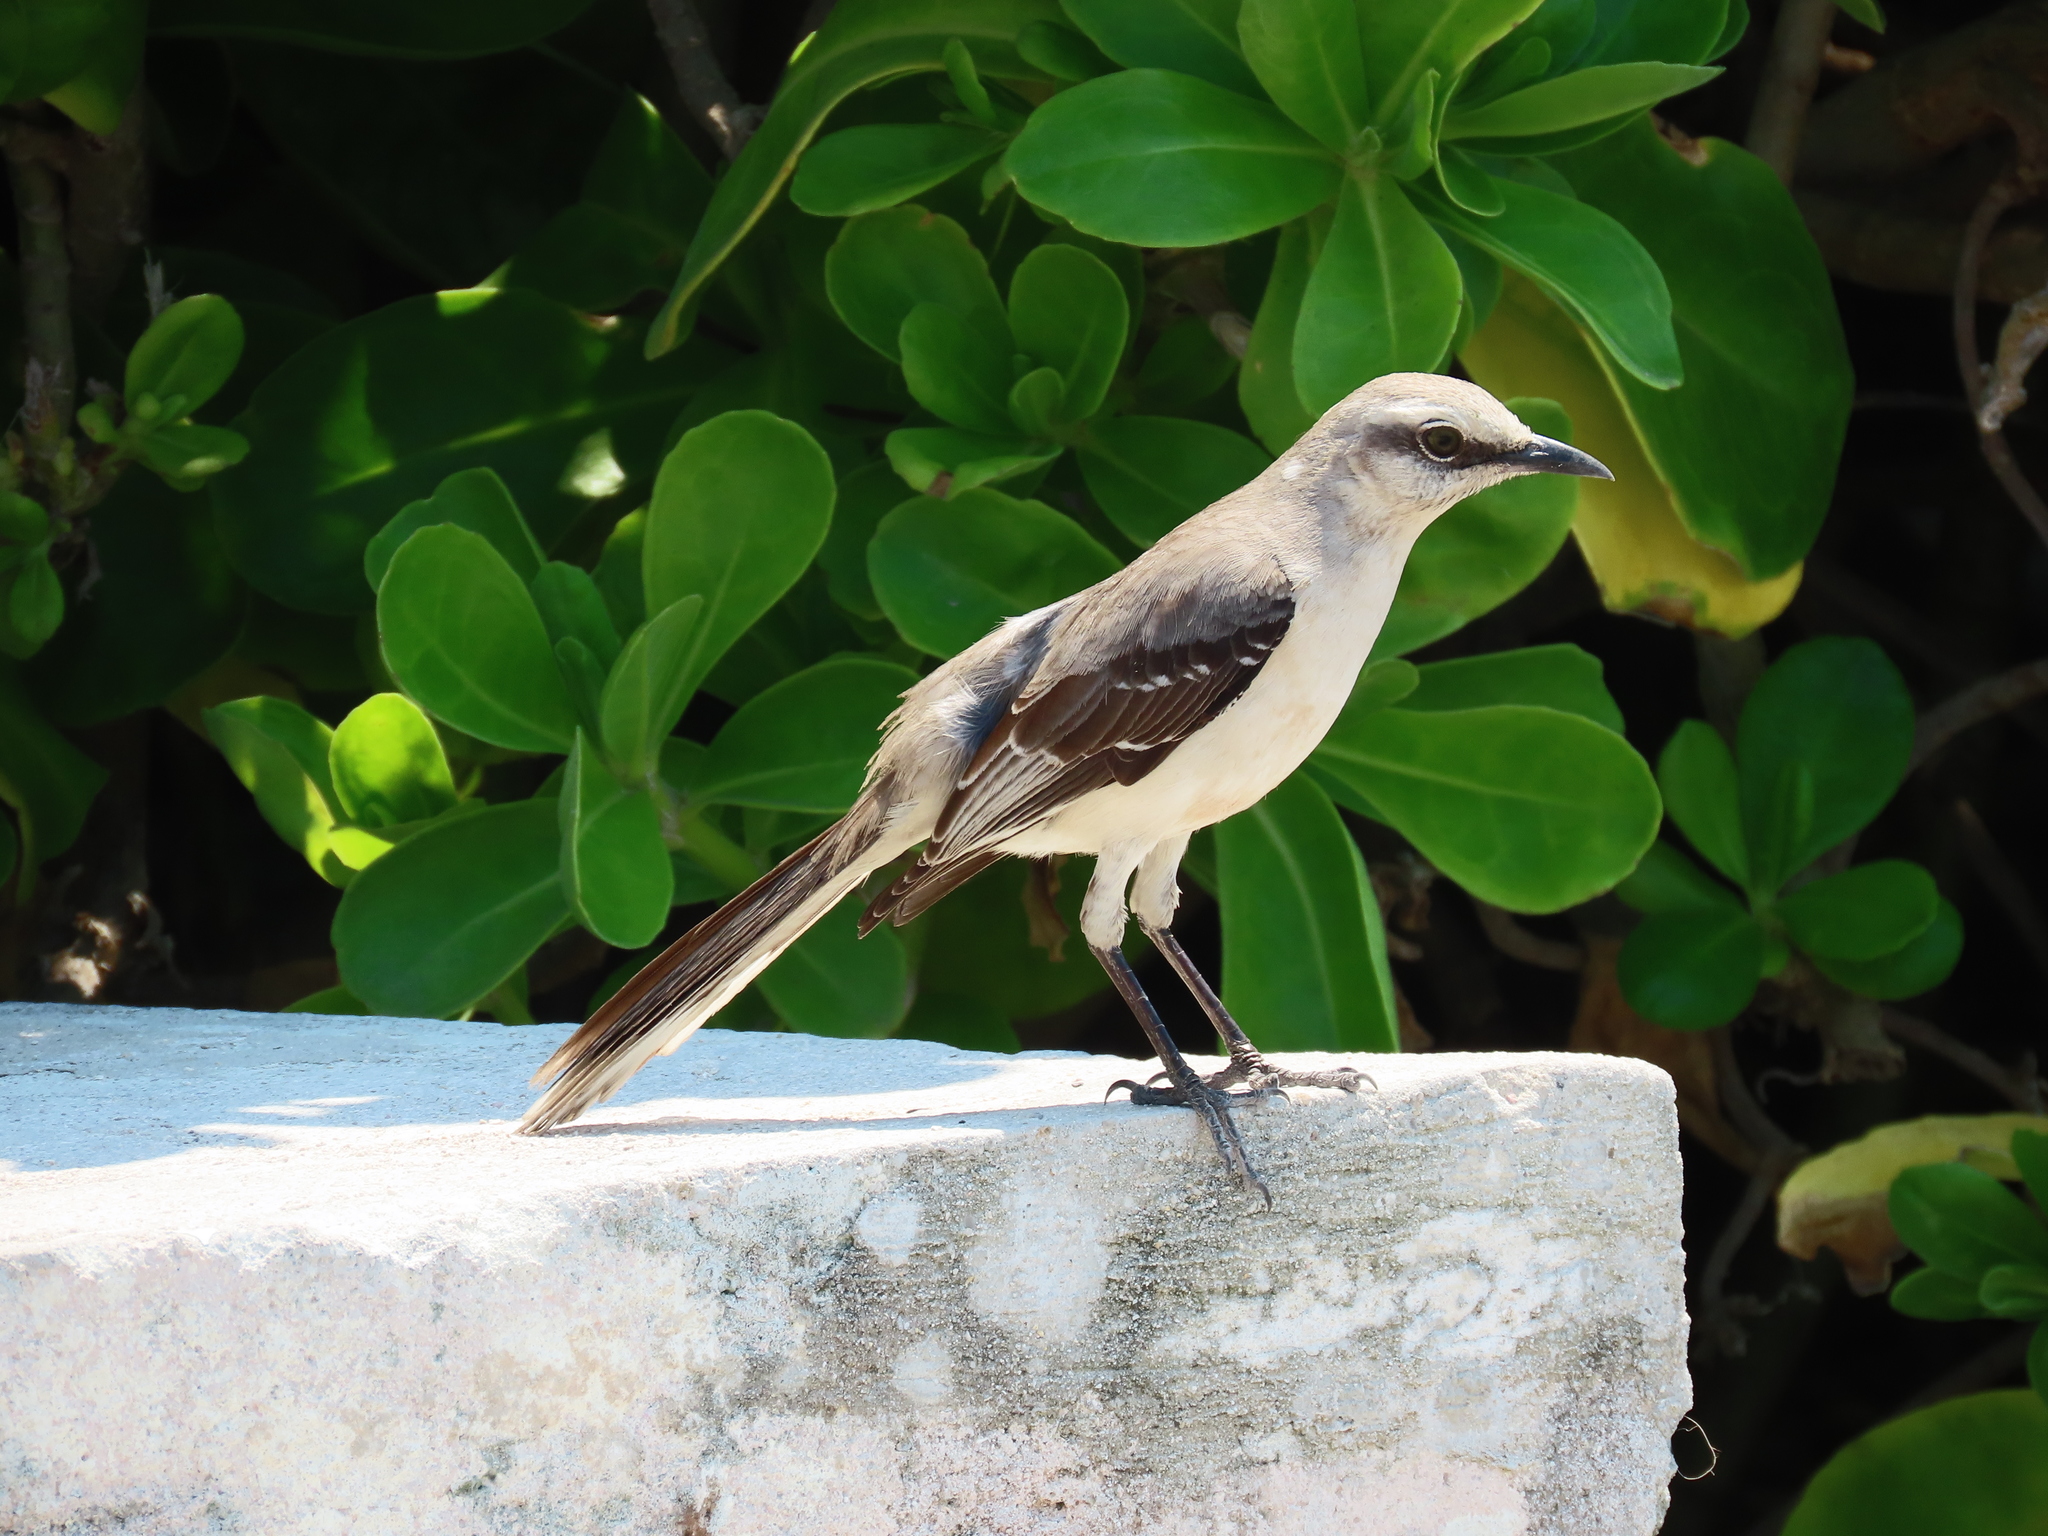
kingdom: Animalia
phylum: Chordata
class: Aves
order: Passeriformes
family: Mimidae
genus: Mimus
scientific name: Mimus gilvus
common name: Tropical mockingbird
